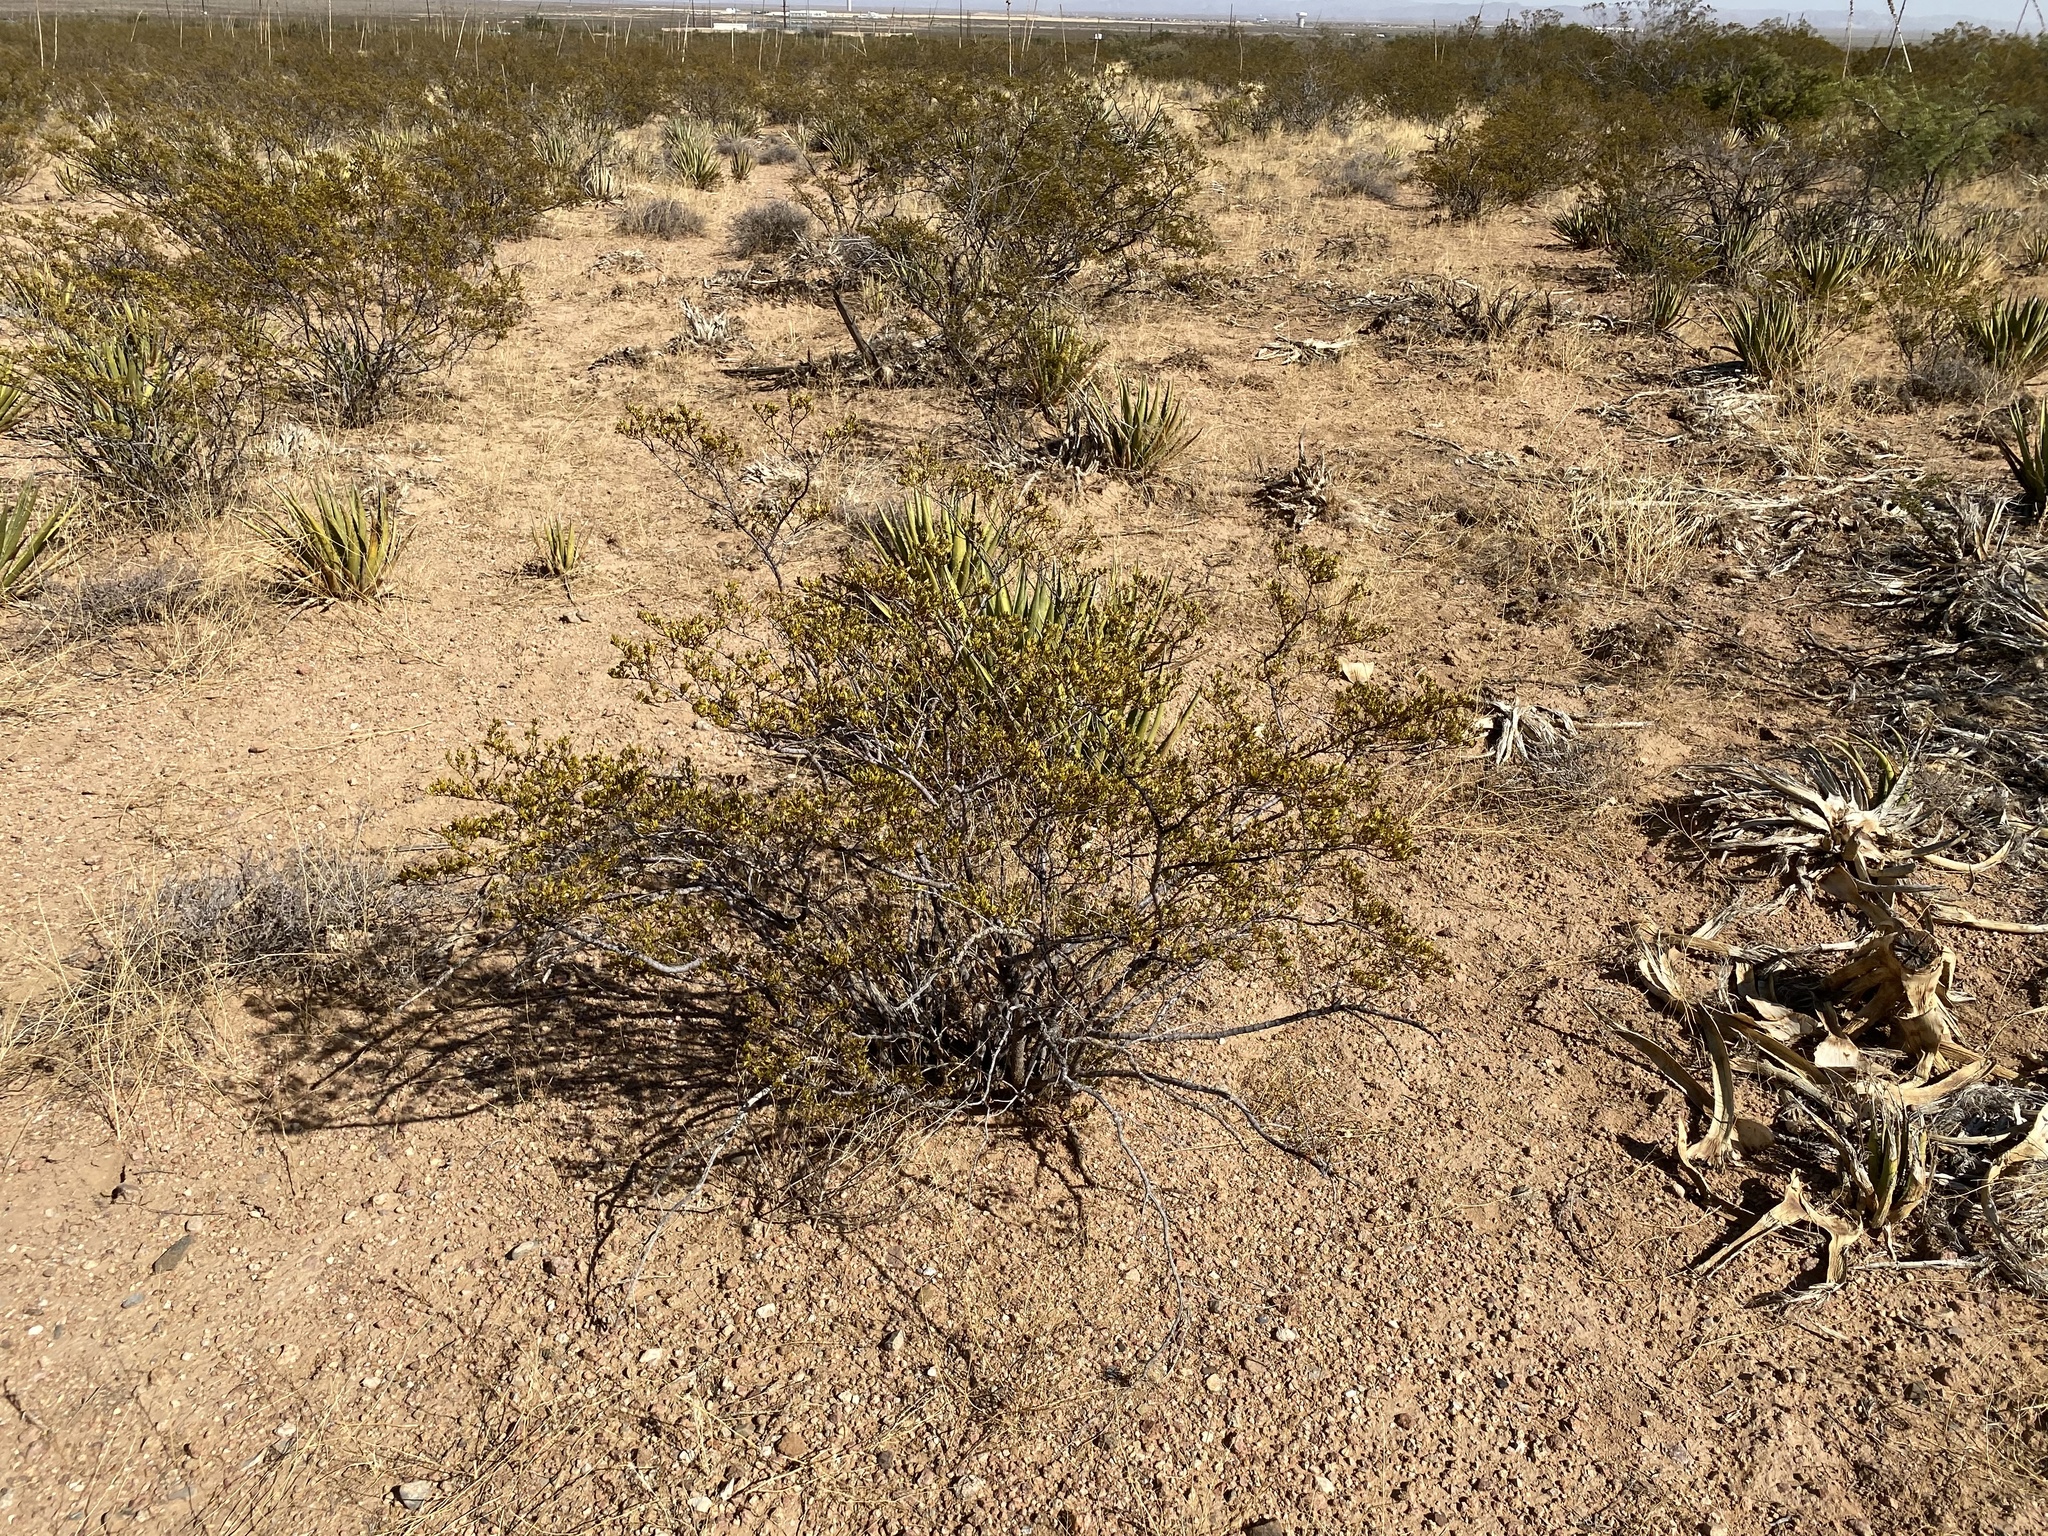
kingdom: Plantae
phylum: Tracheophyta
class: Magnoliopsida
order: Zygophyllales
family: Zygophyllaceae
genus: Larrea
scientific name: Larrea tridentata
